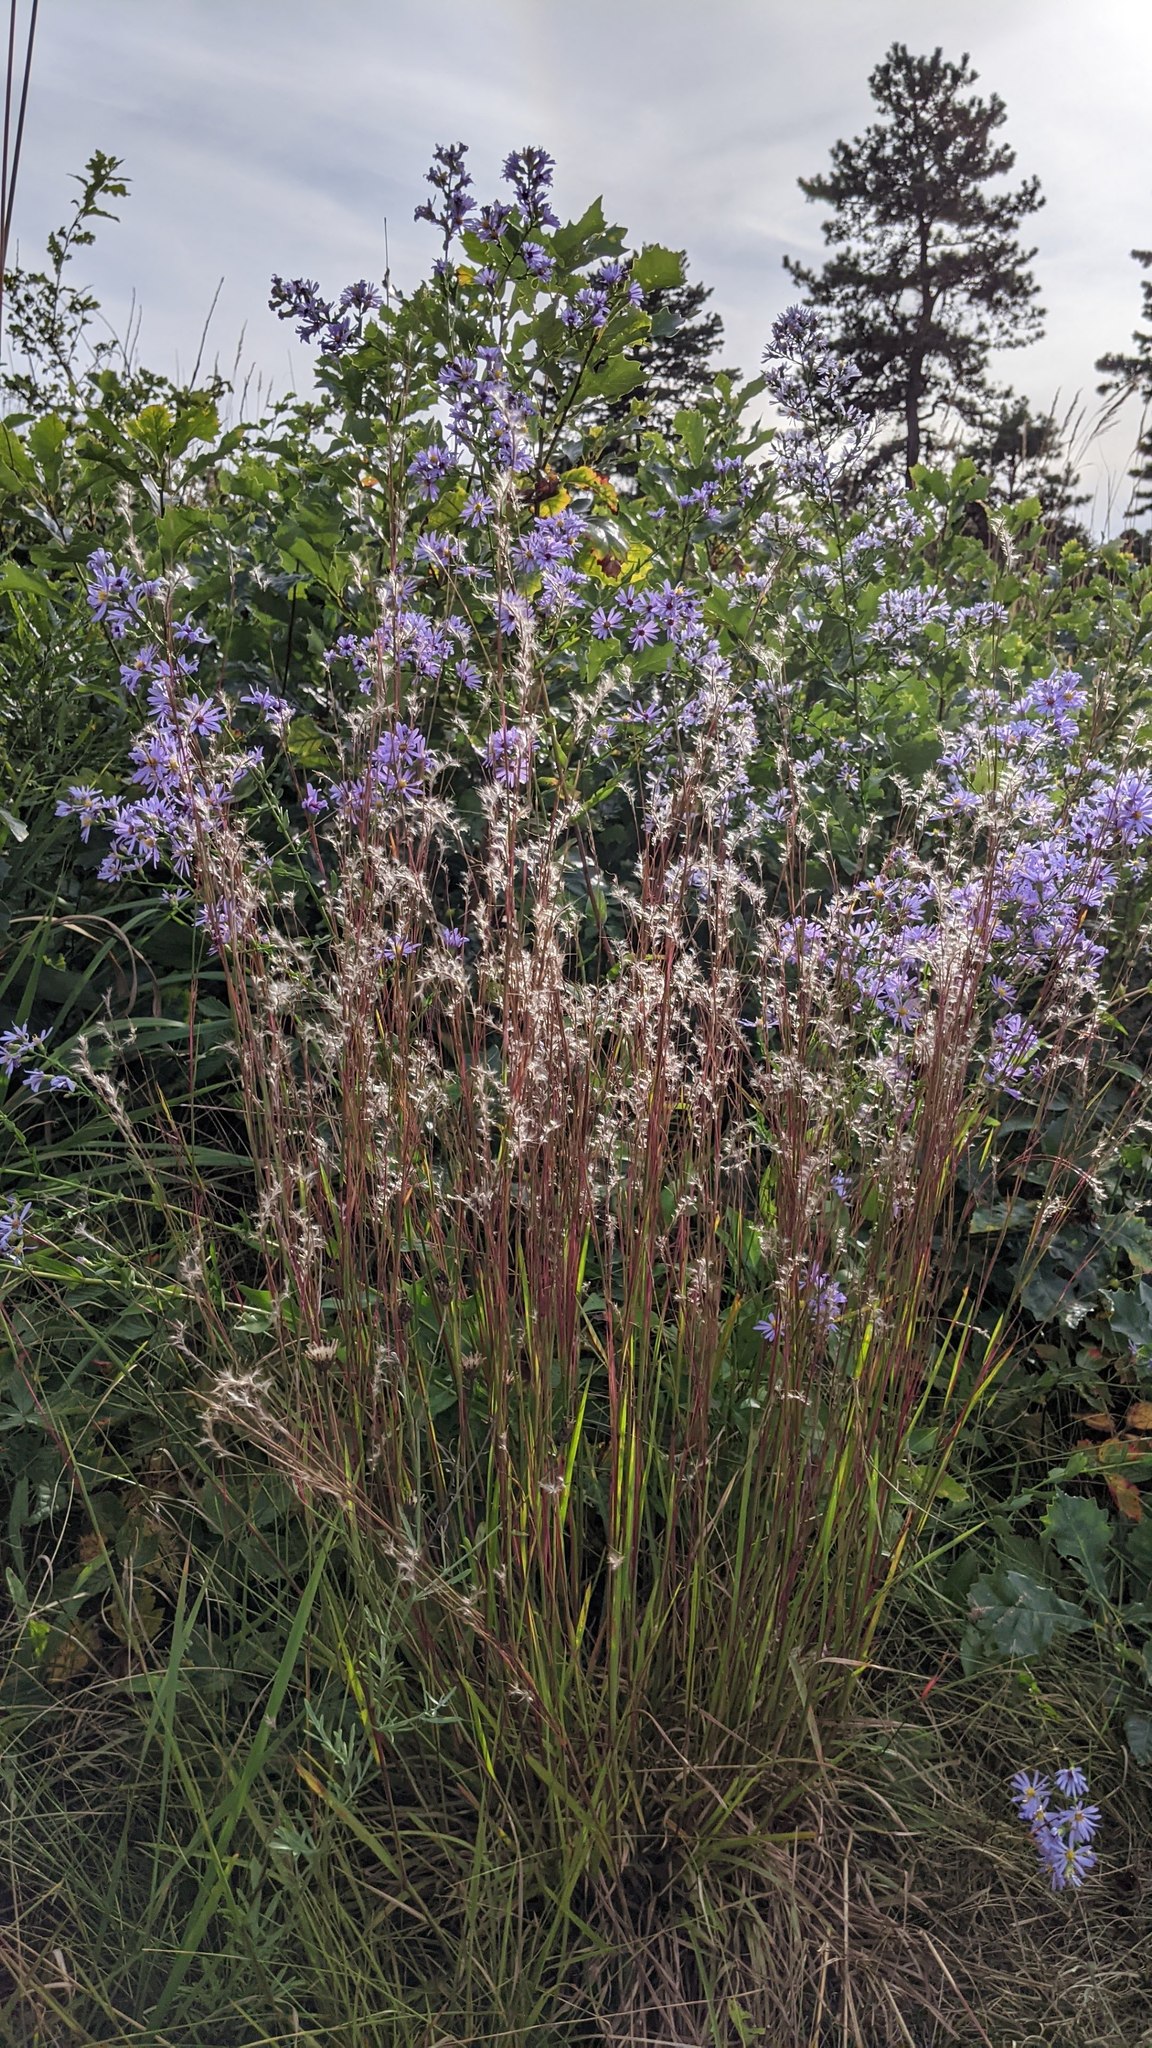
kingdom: Plantae
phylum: Tracheophyta
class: Liliopsida
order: Poales
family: Poaceae
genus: Schizachyrium
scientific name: Schizachyrium scoparium
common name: Little bluestem
